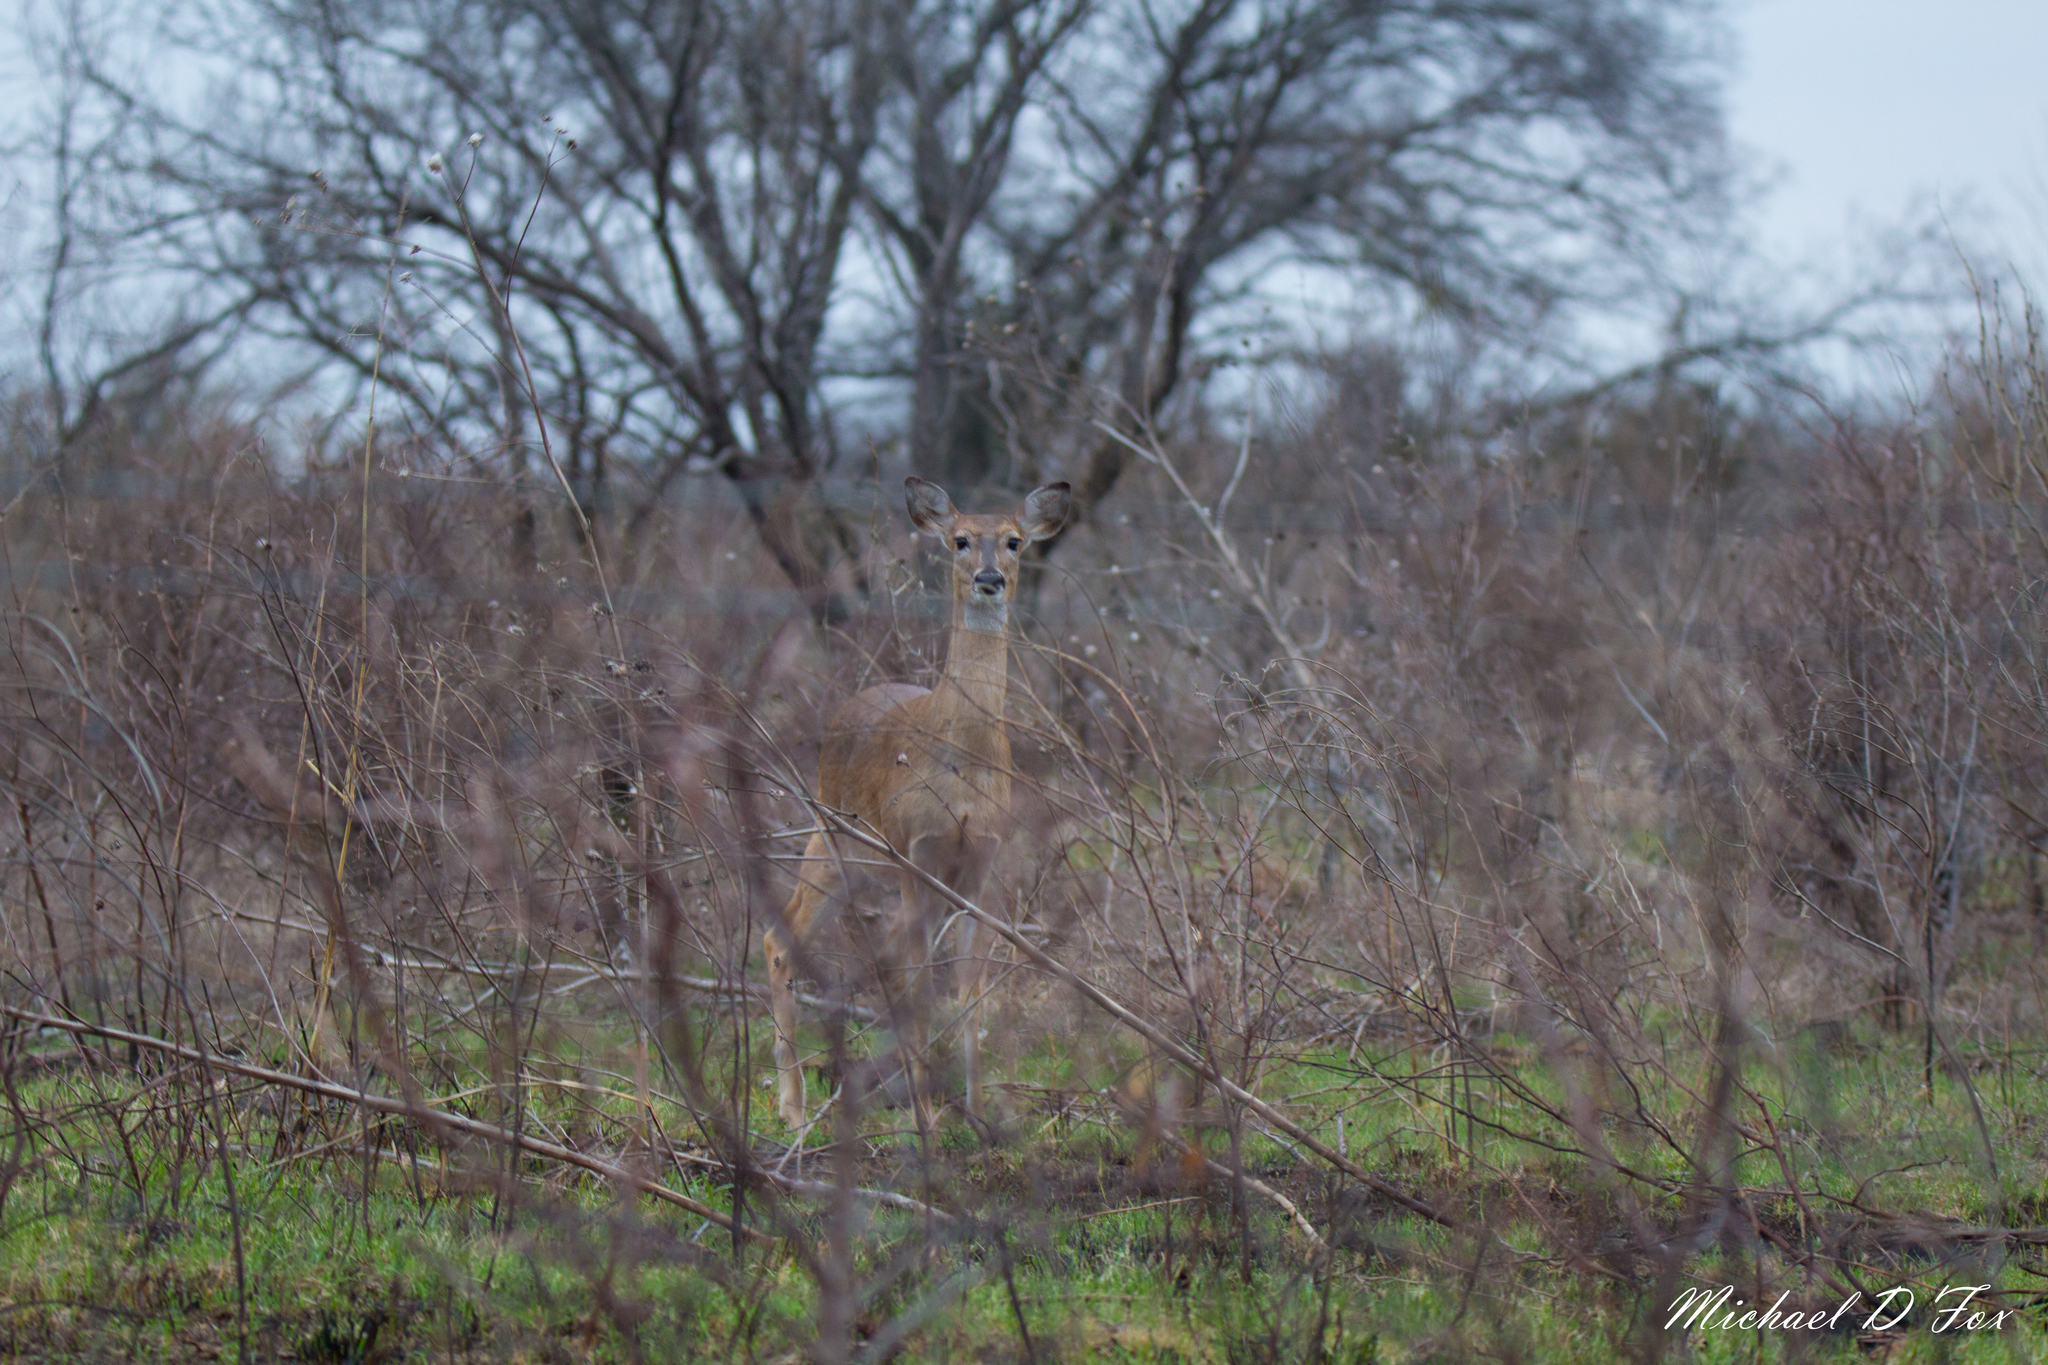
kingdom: Animalia
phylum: Chordata
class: Mammalia
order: Artiodactyla
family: Cervidae
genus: Odocoileus
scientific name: Odocoileus virginianus
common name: White-tailed deer
